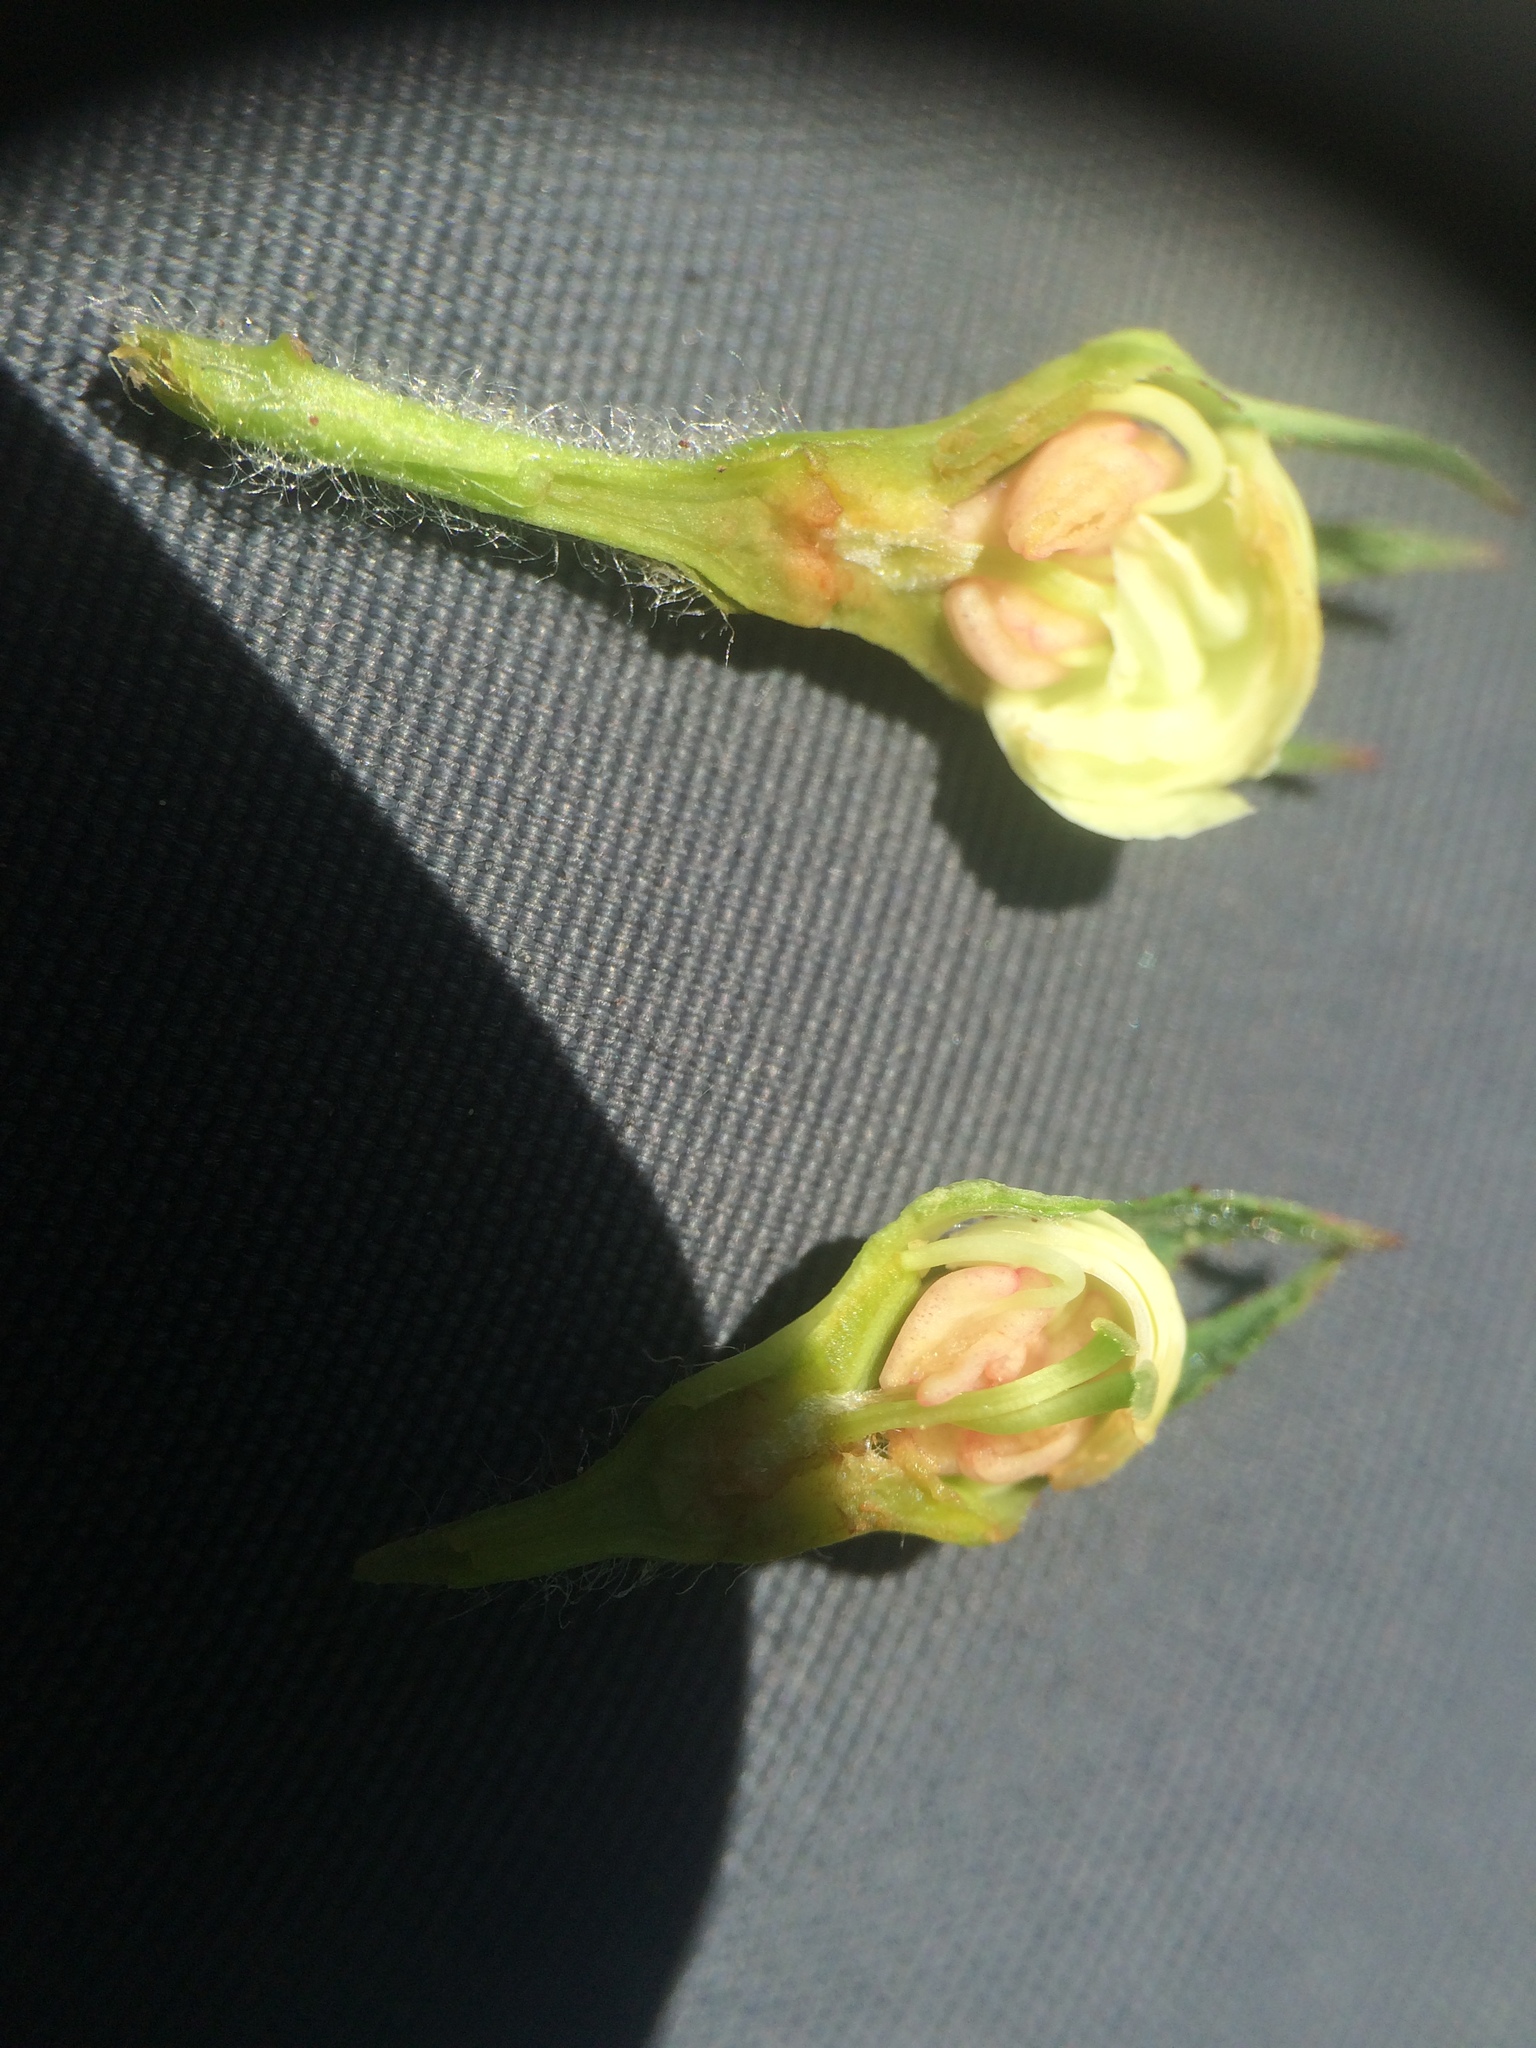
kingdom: Plantae
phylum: Tracheophyta
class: Magnoliopsida
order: Rosales
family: Rosaceae
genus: Crataegus
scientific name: Crataegus macracantha
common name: Large-thorn hawthorn
